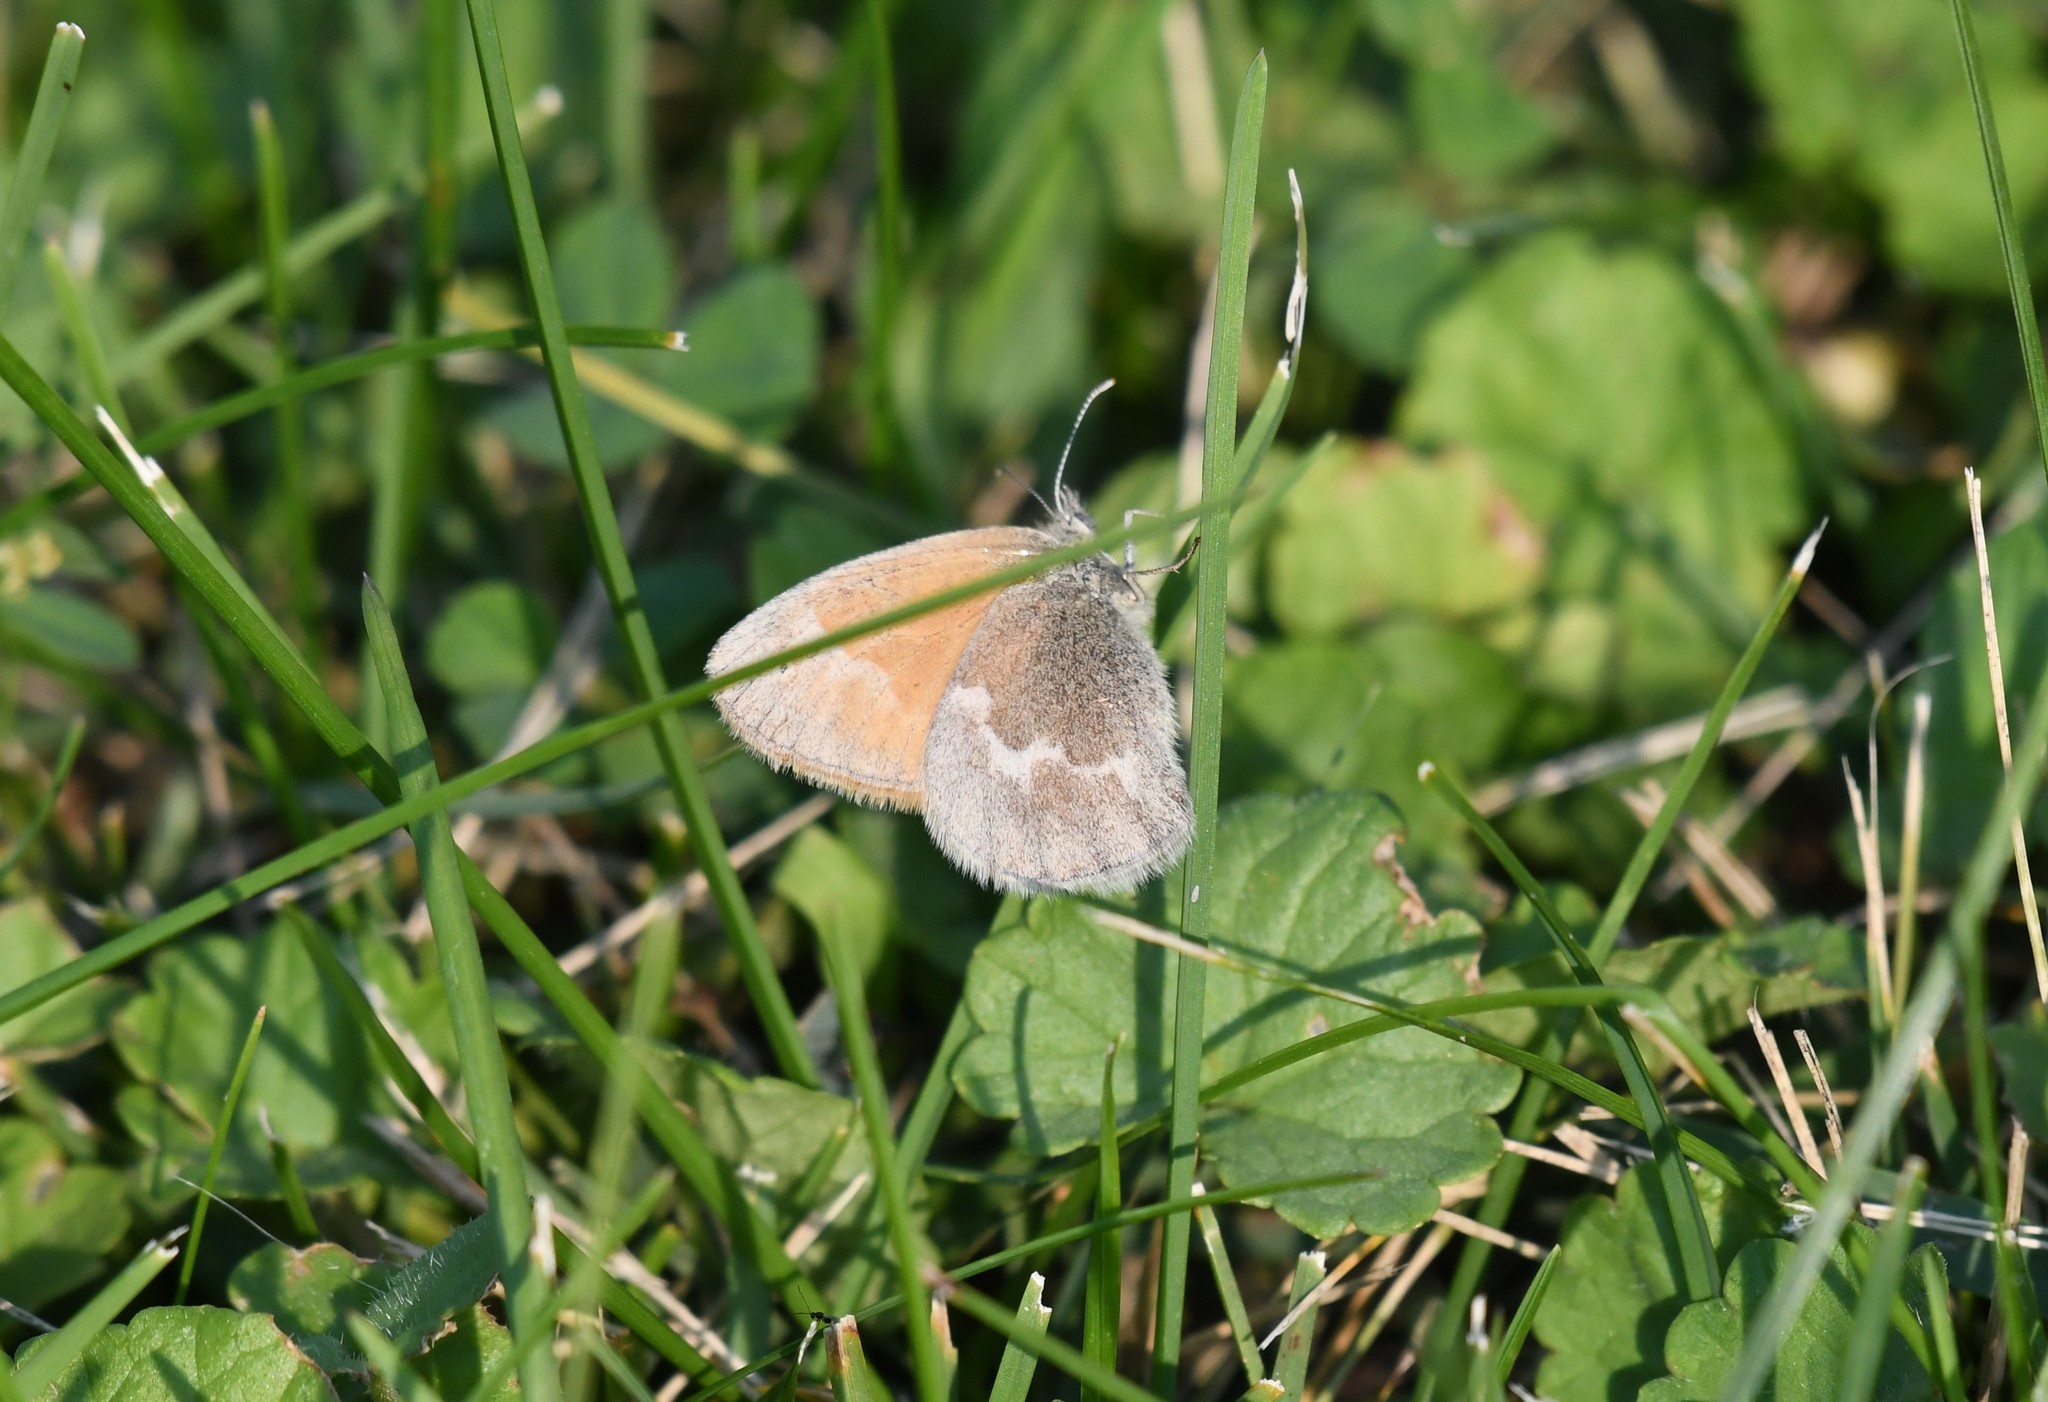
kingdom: Animalia
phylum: Arthropoda
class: Insecta
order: Lepidoptera
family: Nymphalidae
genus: Coenonympha
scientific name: Coenonympha california
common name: Common ringlet
